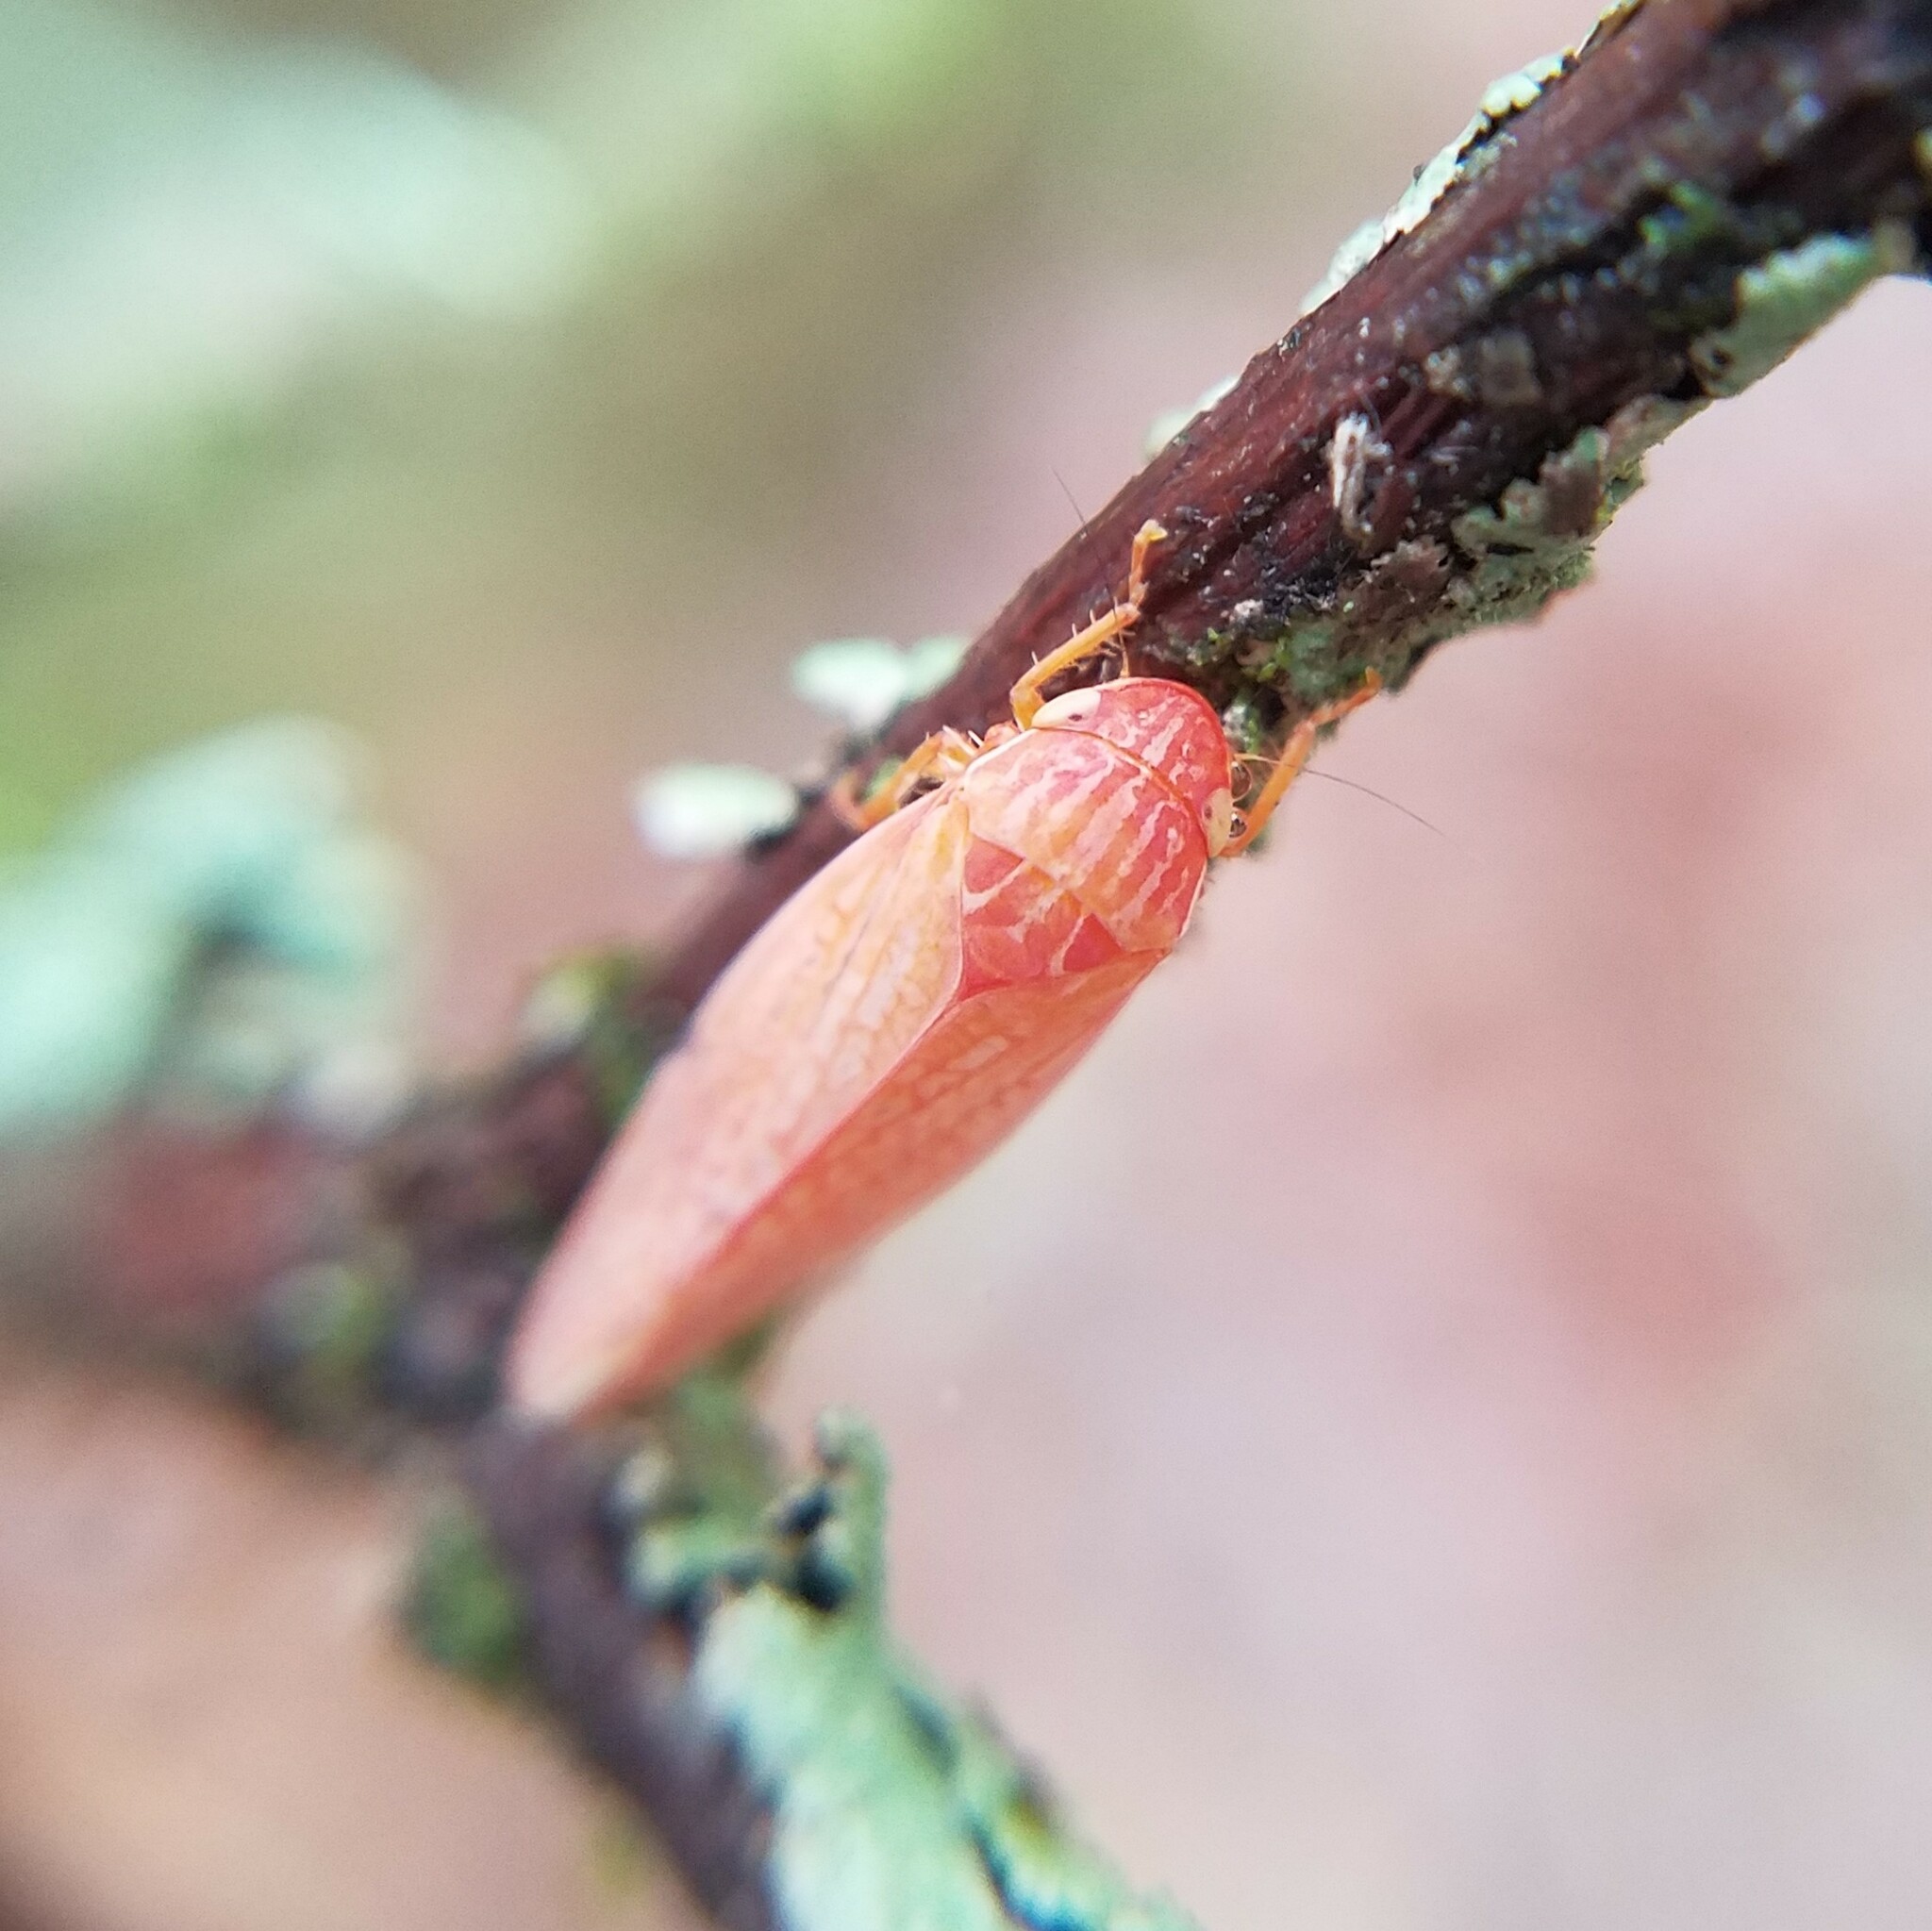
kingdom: Animalia
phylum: Arthropoda
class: Insecta
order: Hemiptera
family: Cicadellidae
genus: Gyponana
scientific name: Gyponana gladia
